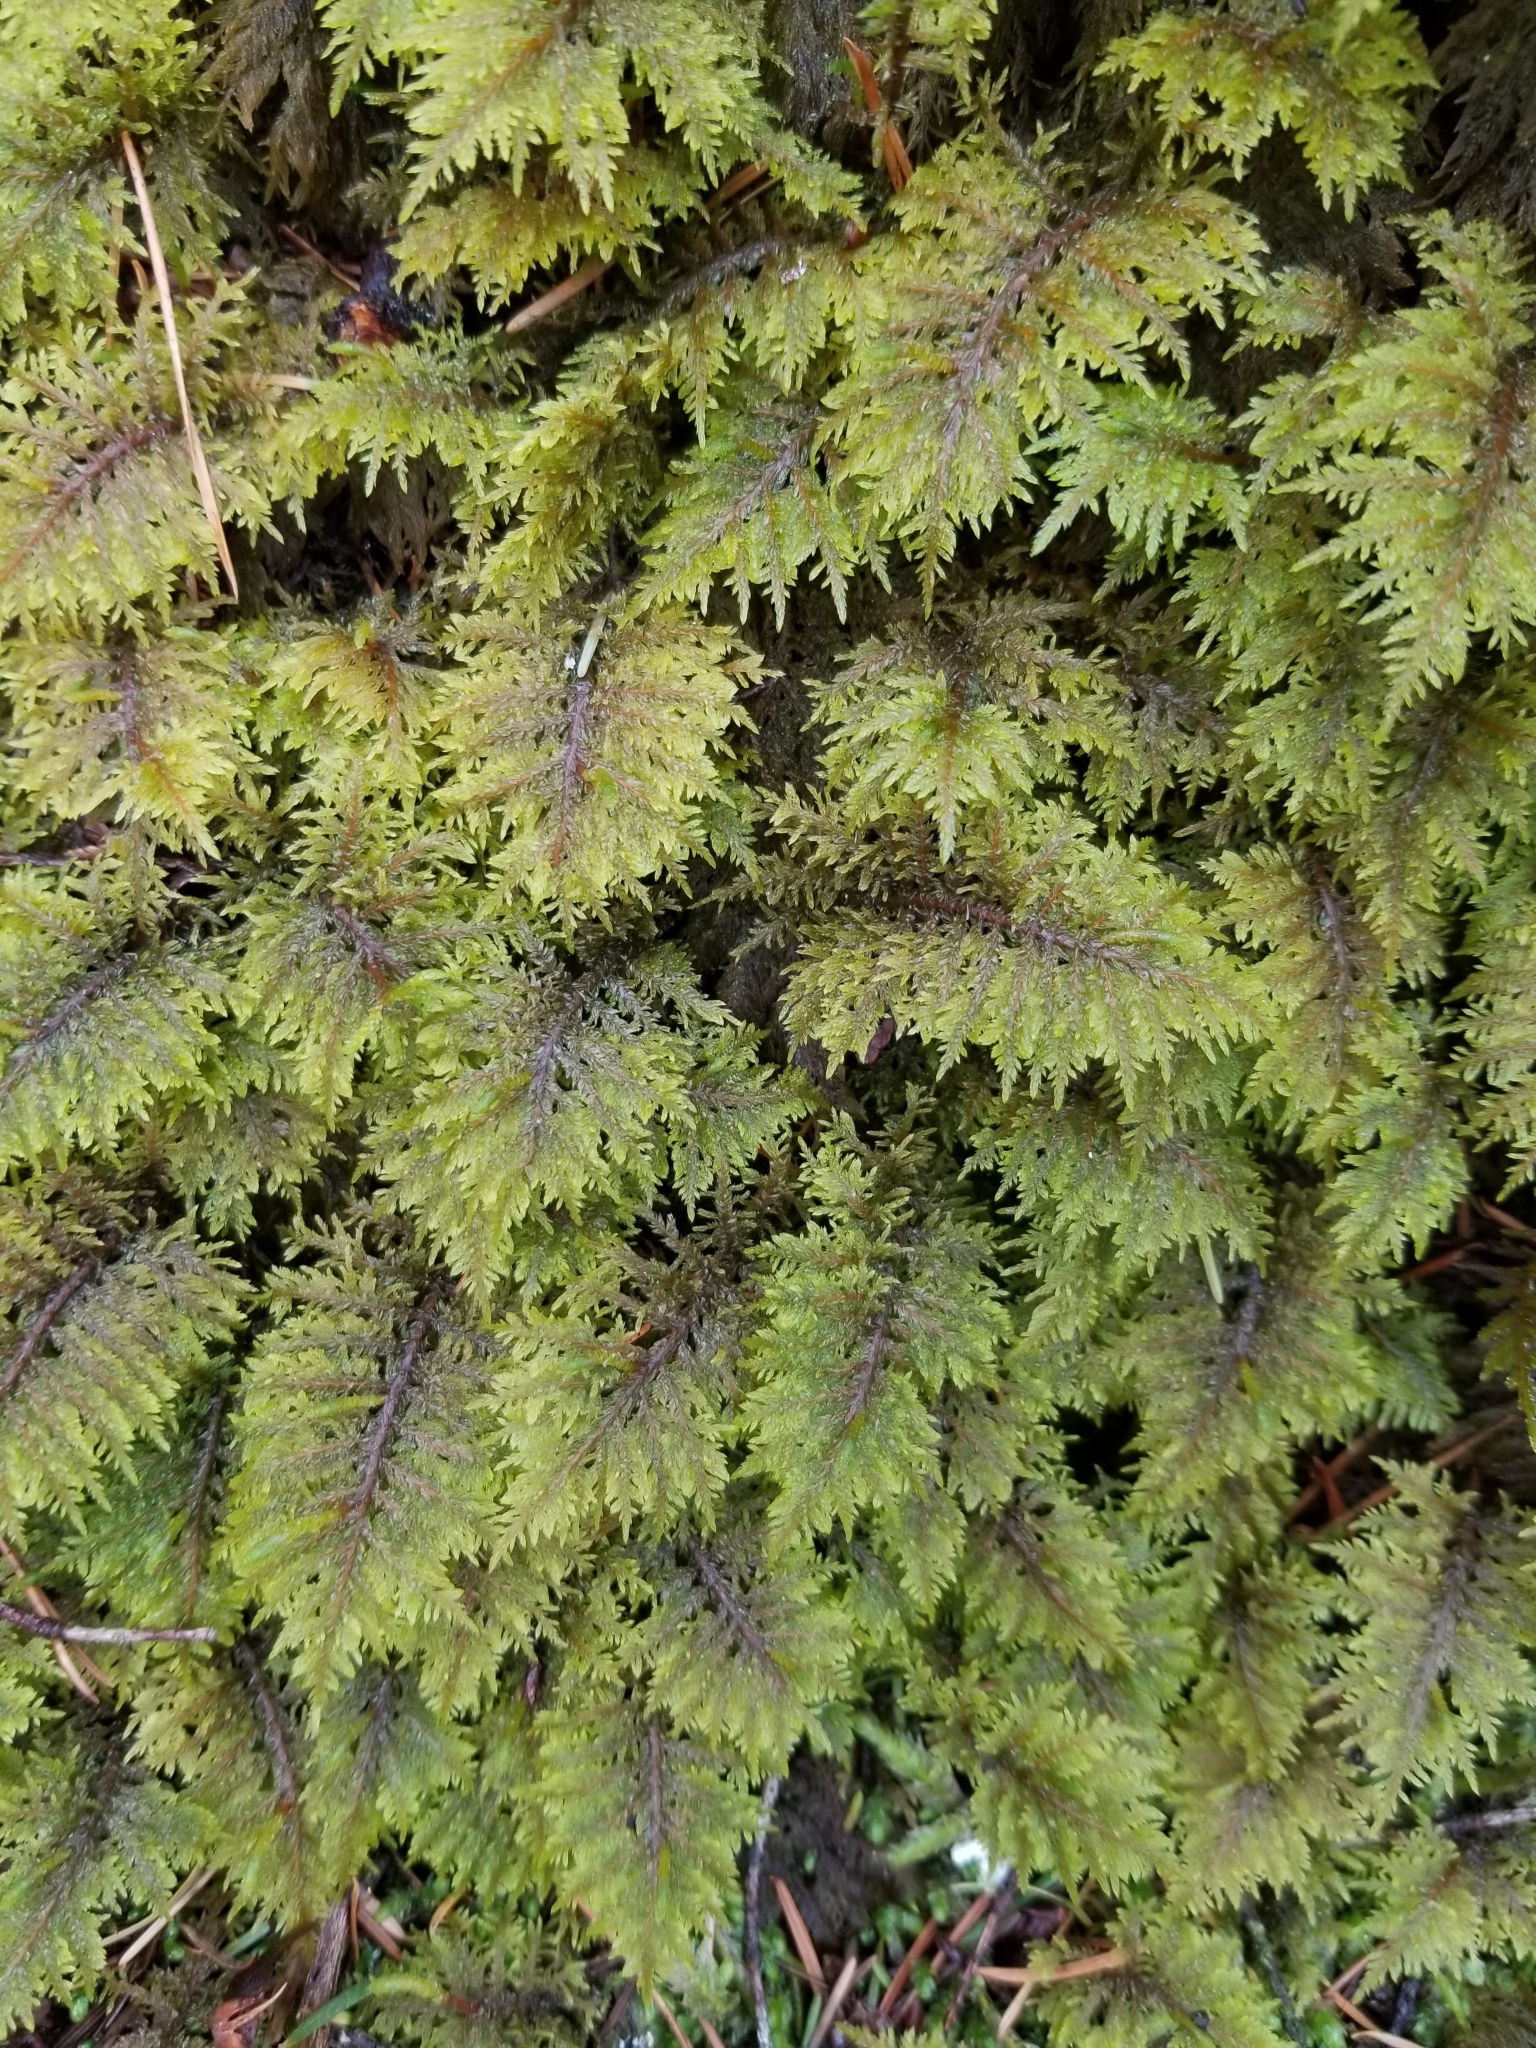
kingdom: Plantae
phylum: Bryophyta
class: Bryopsida
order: Hypnales
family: Hylocomiaceae
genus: Hylocomium
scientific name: Hylocomium splendens
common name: Stairstep moss
